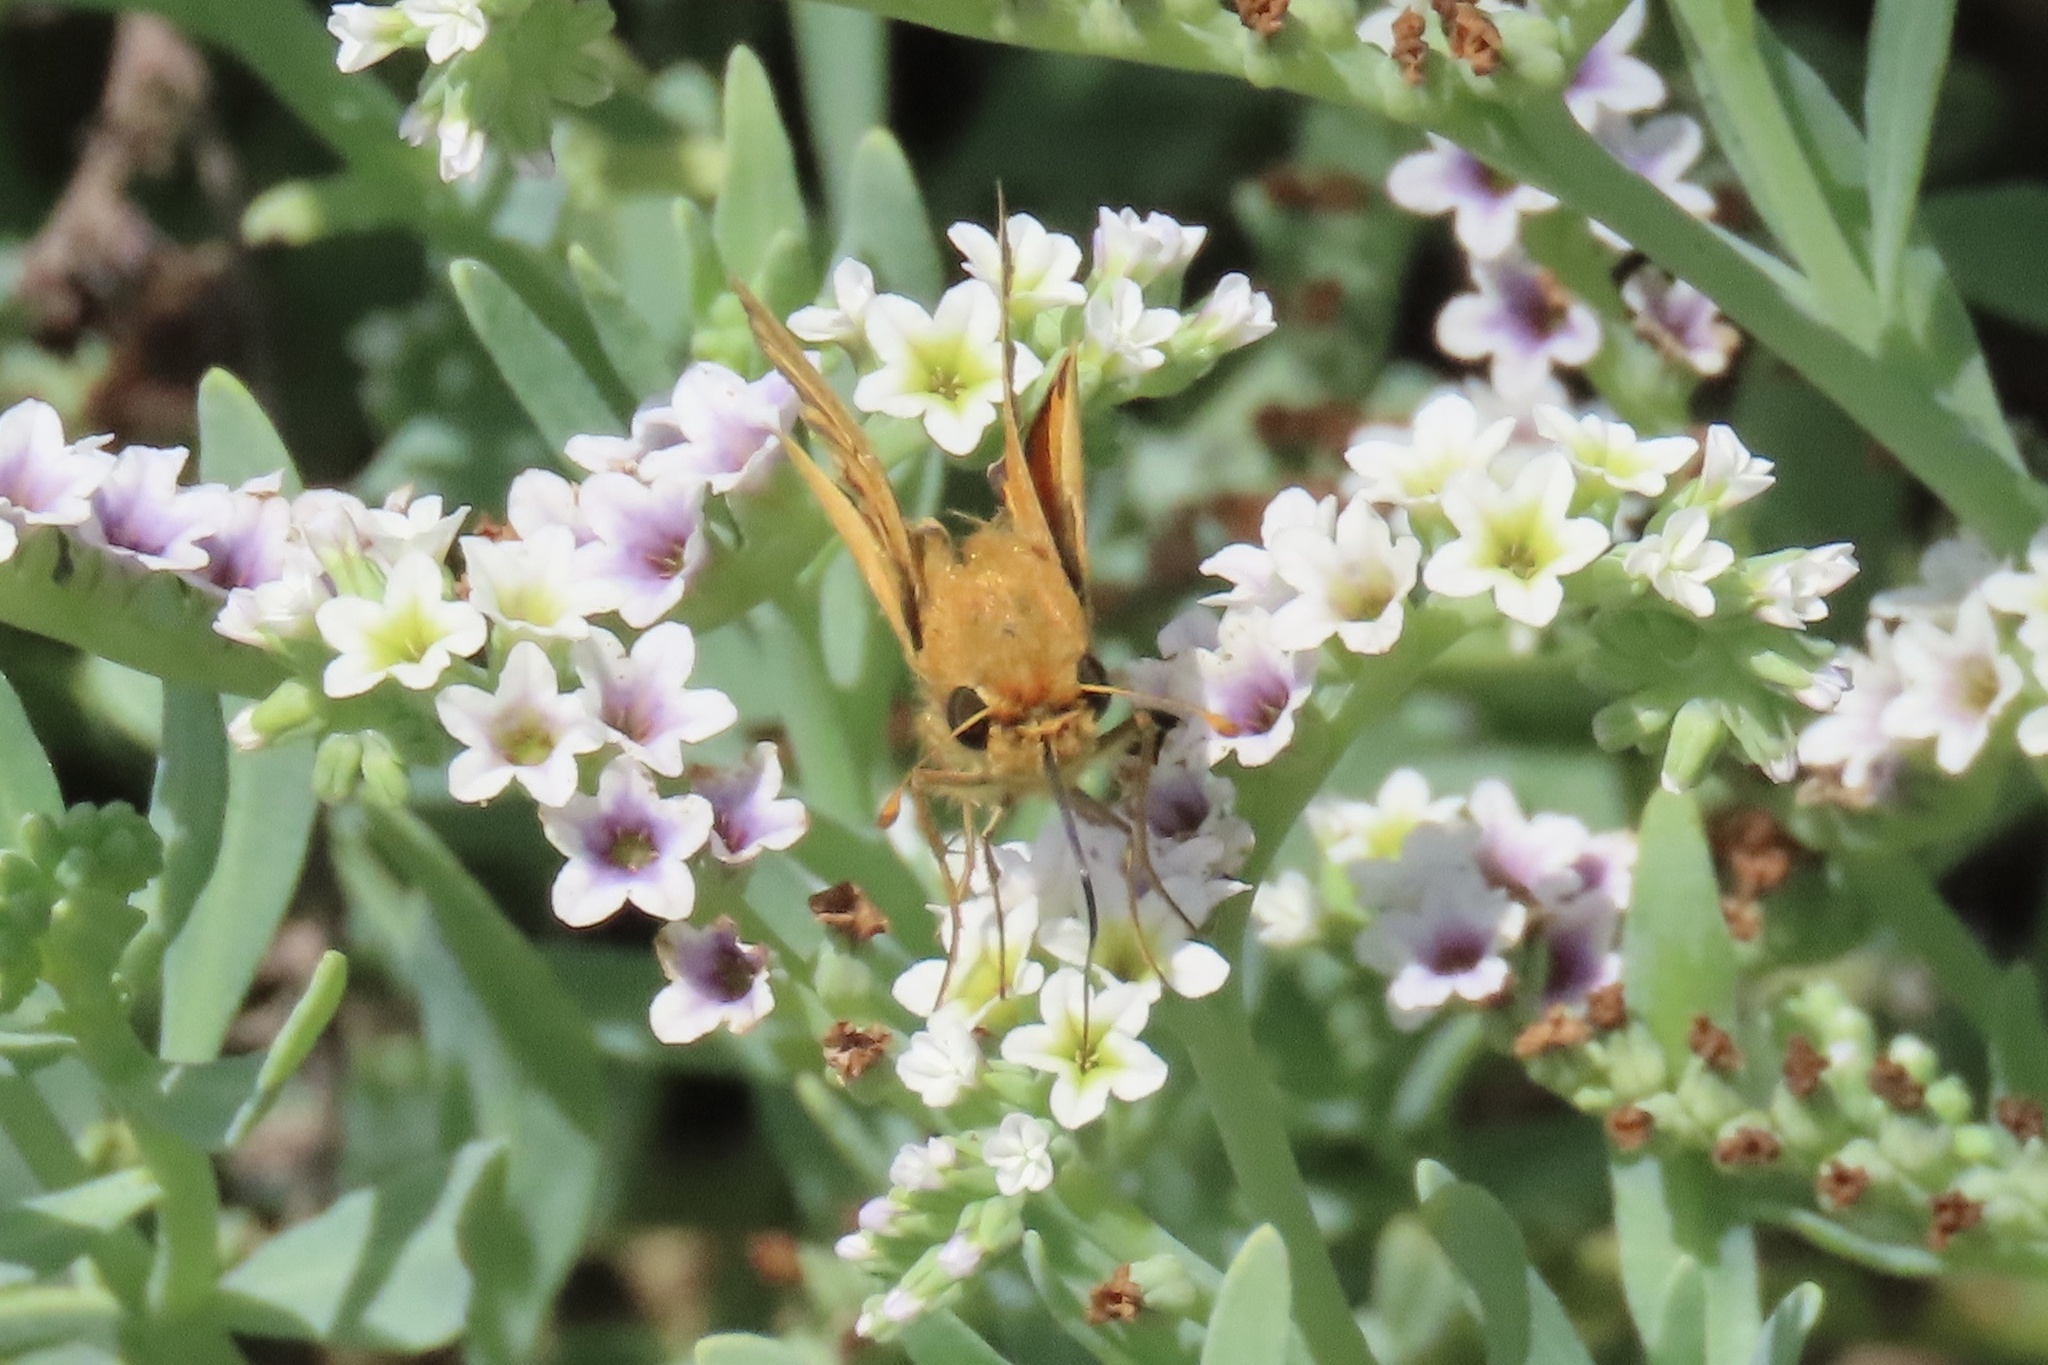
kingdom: Animalia
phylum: Arthropoda
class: Insecta
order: Lepidoptera
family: Hesperiidae
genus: Hylephila
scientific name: Hylephila phyleus
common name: Fiery skipper
